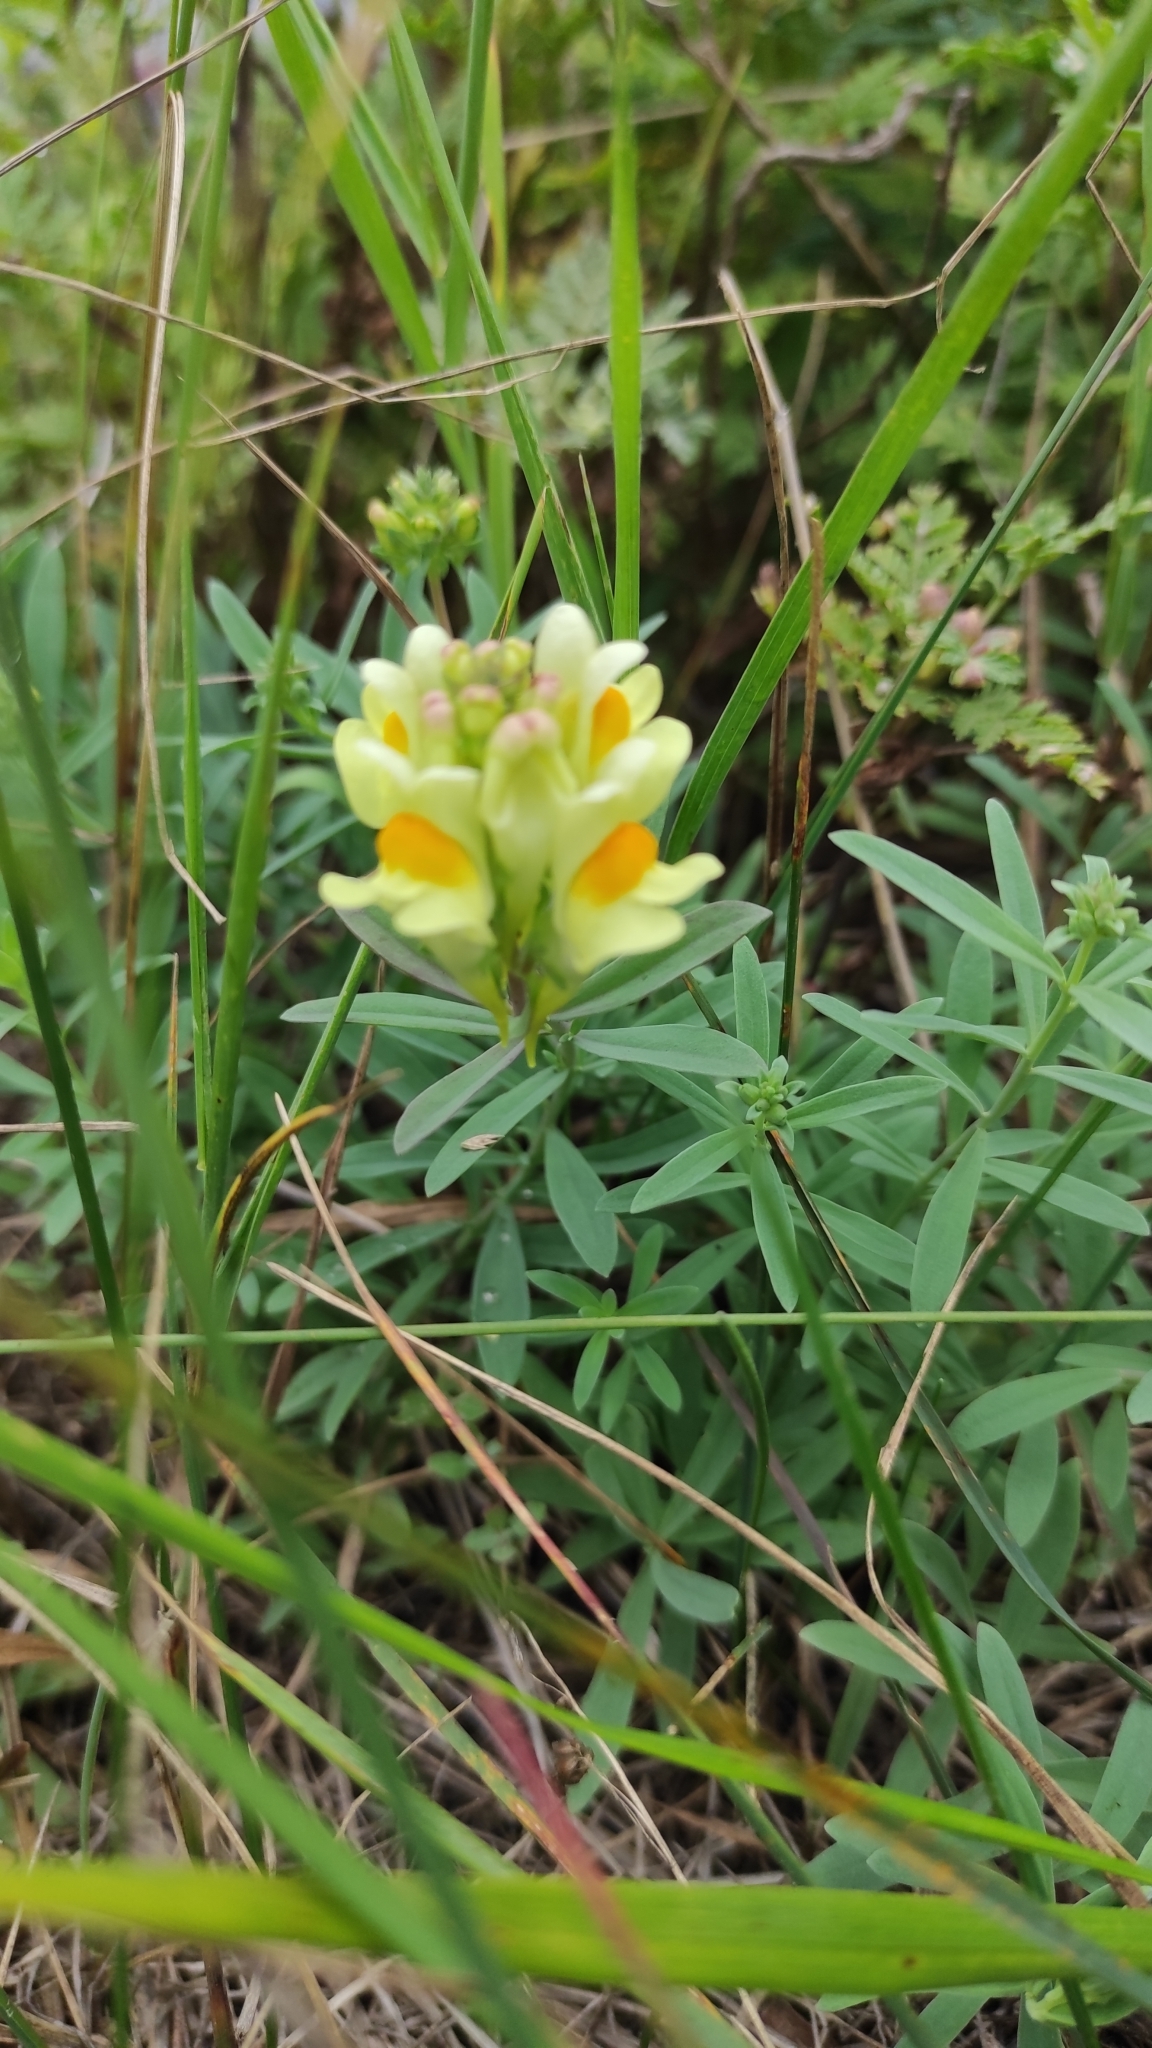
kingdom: Plantae
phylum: Tracheophyta
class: Magnoliopsida
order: Lamiales
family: Plantaginaceae
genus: Linaria
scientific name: Linaria vulgaris
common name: Butter and eggs
